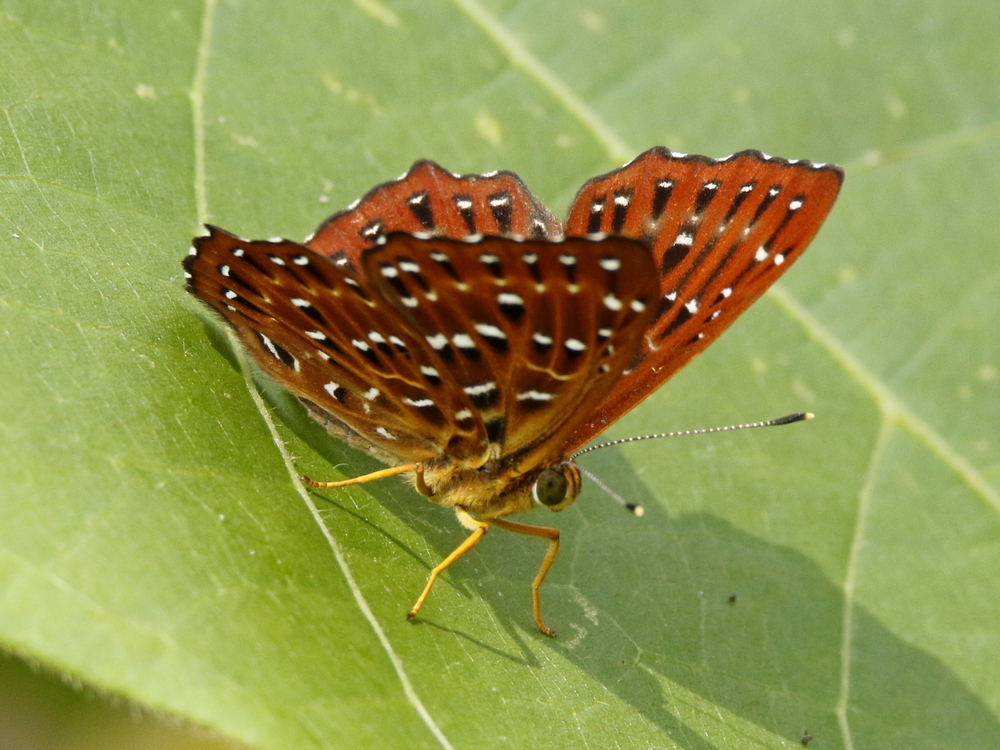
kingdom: Animalia
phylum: Arthropoda
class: Insecta
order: Lepidoptera
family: Riodinidae
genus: Zemeros
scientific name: Zemeros flegyas
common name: Punchinello
